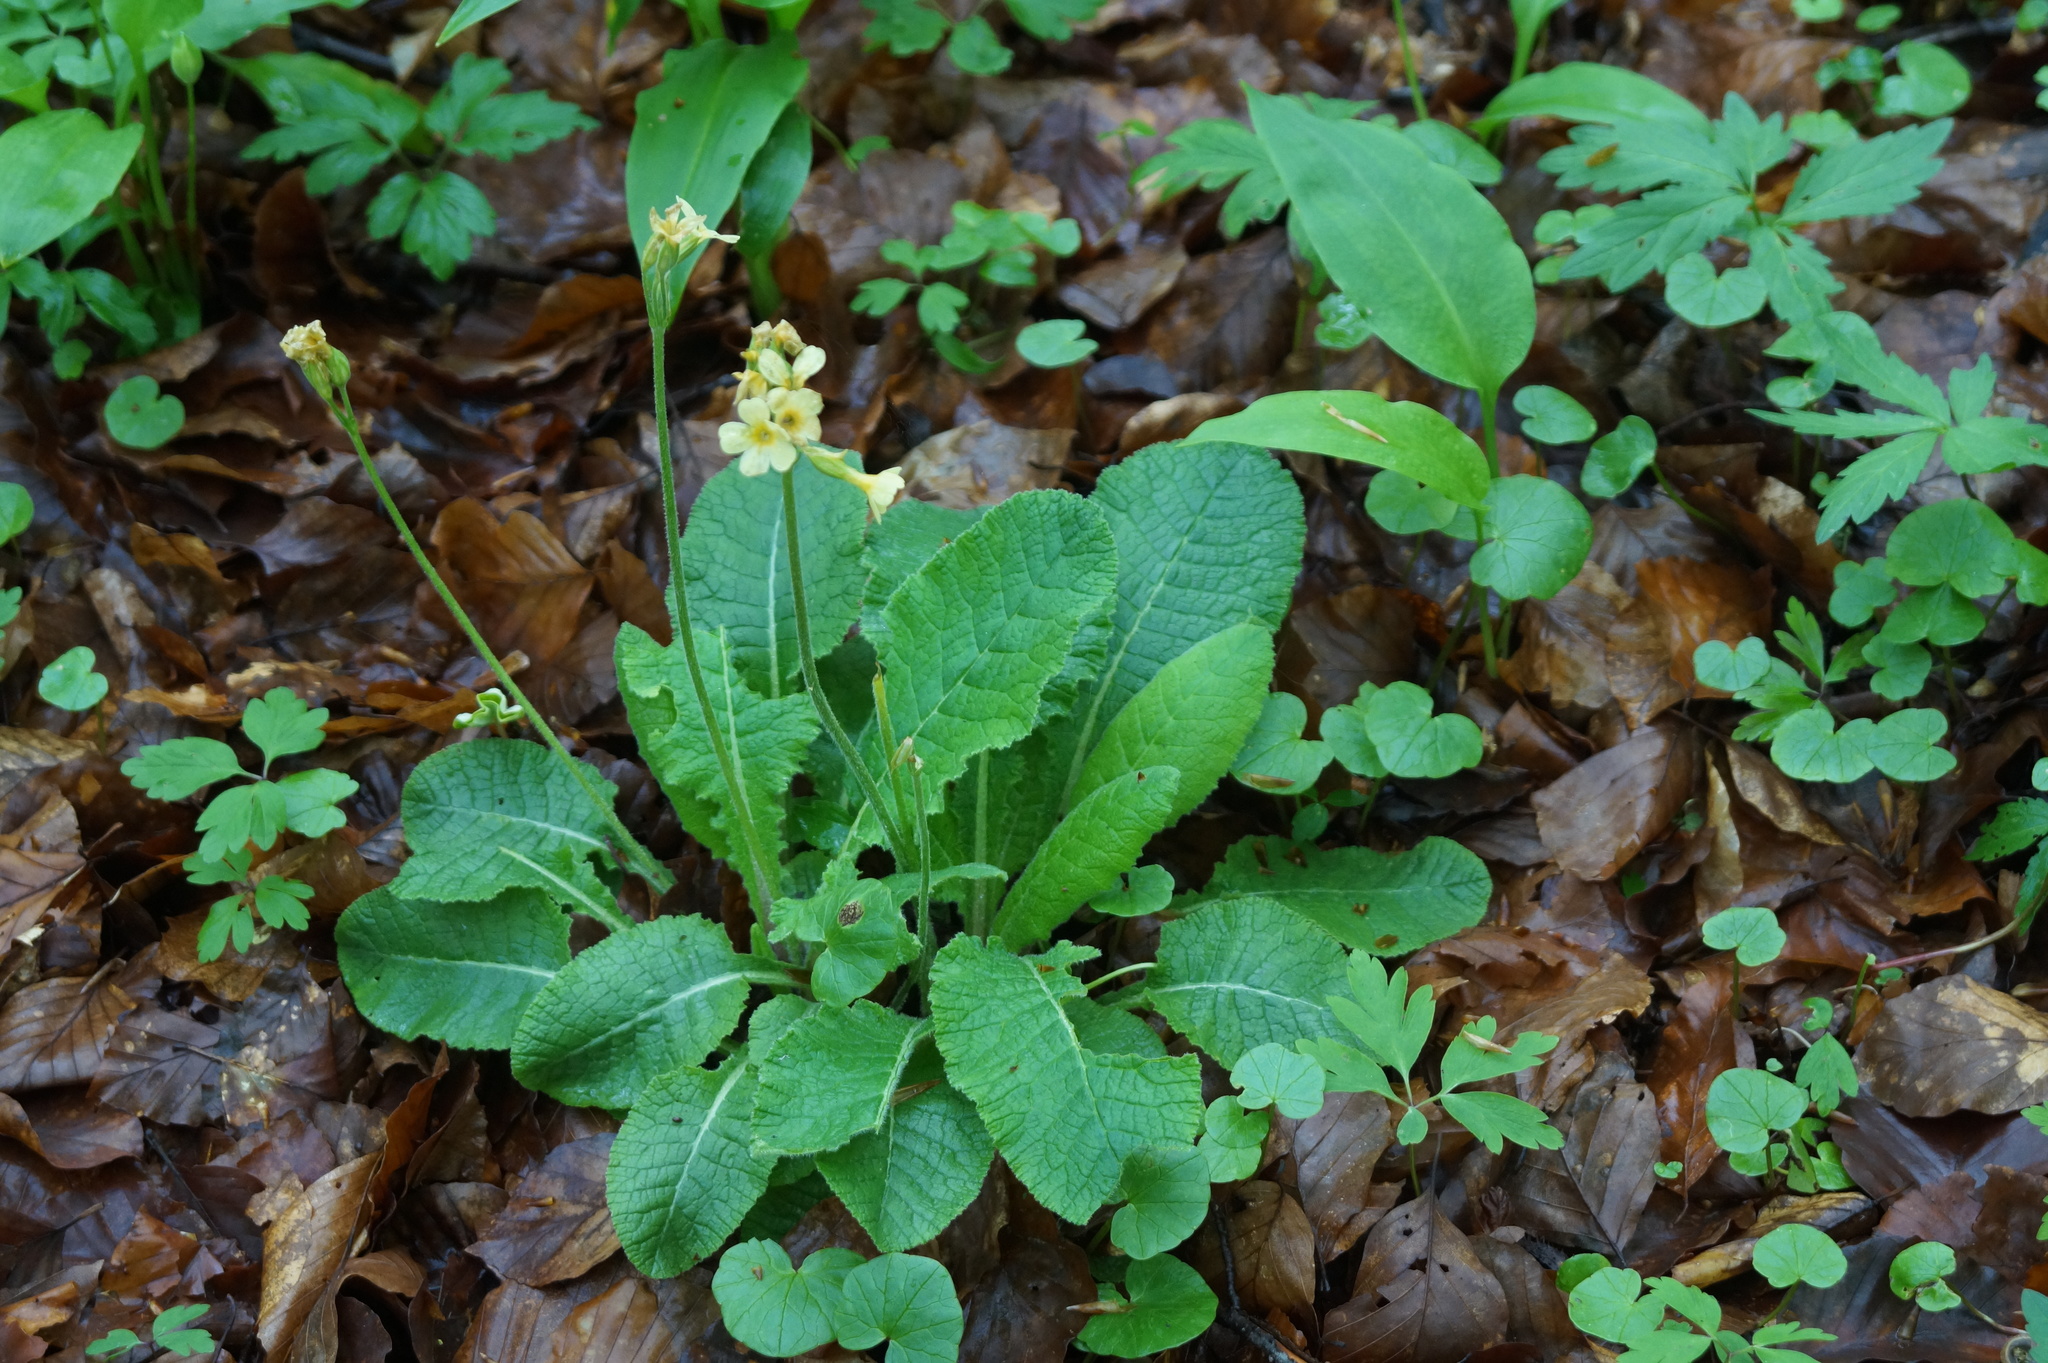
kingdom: Plantae
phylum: Tracheophyta
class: Magnoliopsida
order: Ericales
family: Primulaceae
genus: Primula
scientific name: Primula elatior
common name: Oxlip
